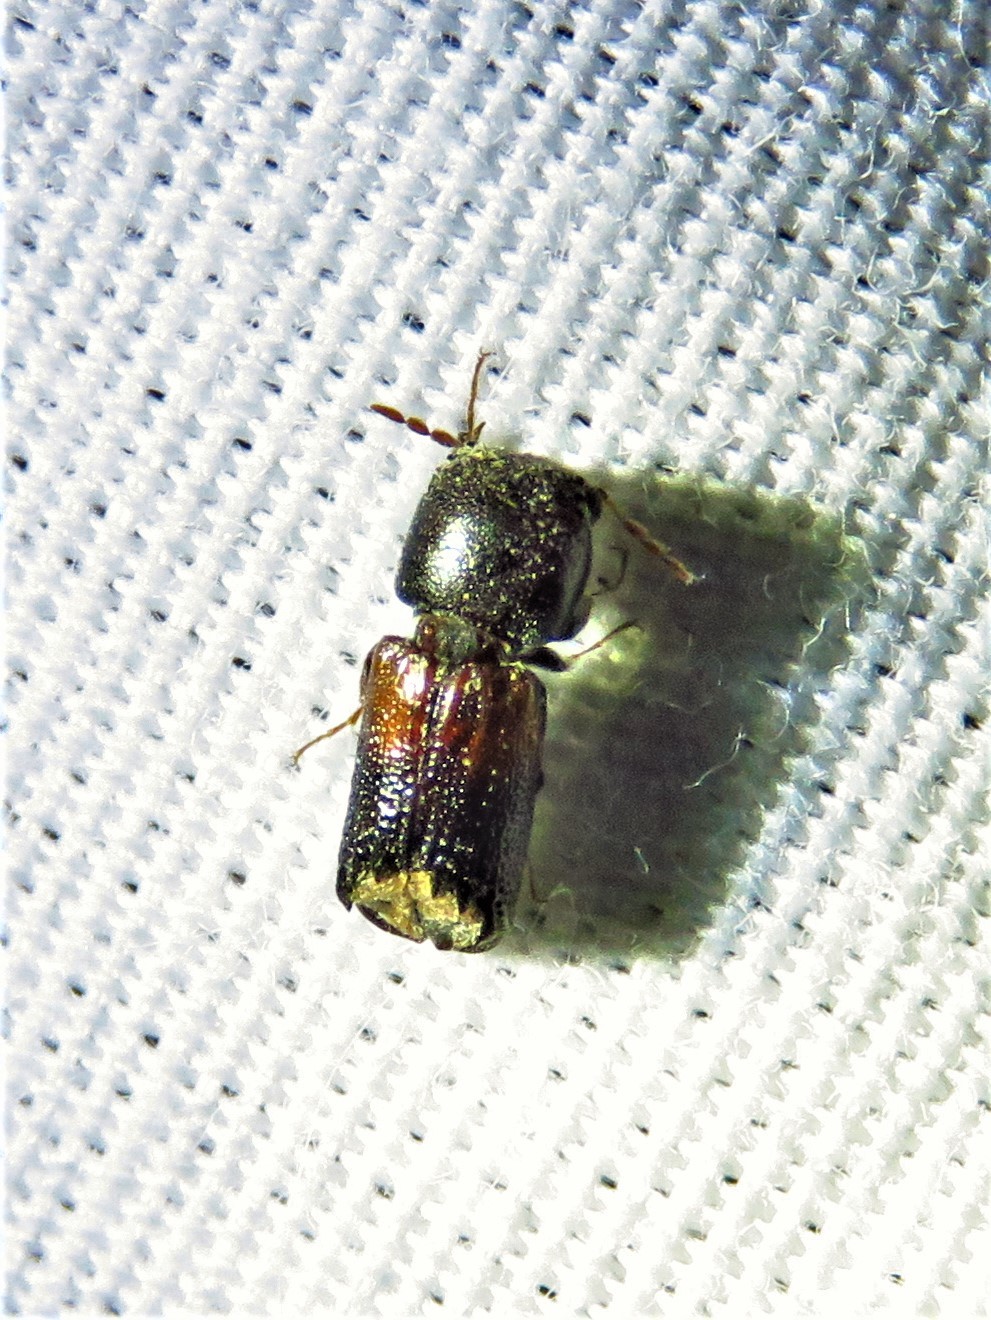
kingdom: Animalia
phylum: Arthropoda
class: Insecta
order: Coleoptera
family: Bostrichidae
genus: Xylobiops
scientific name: Xylobiops basilaris
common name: Red-shouldered bostrichid
